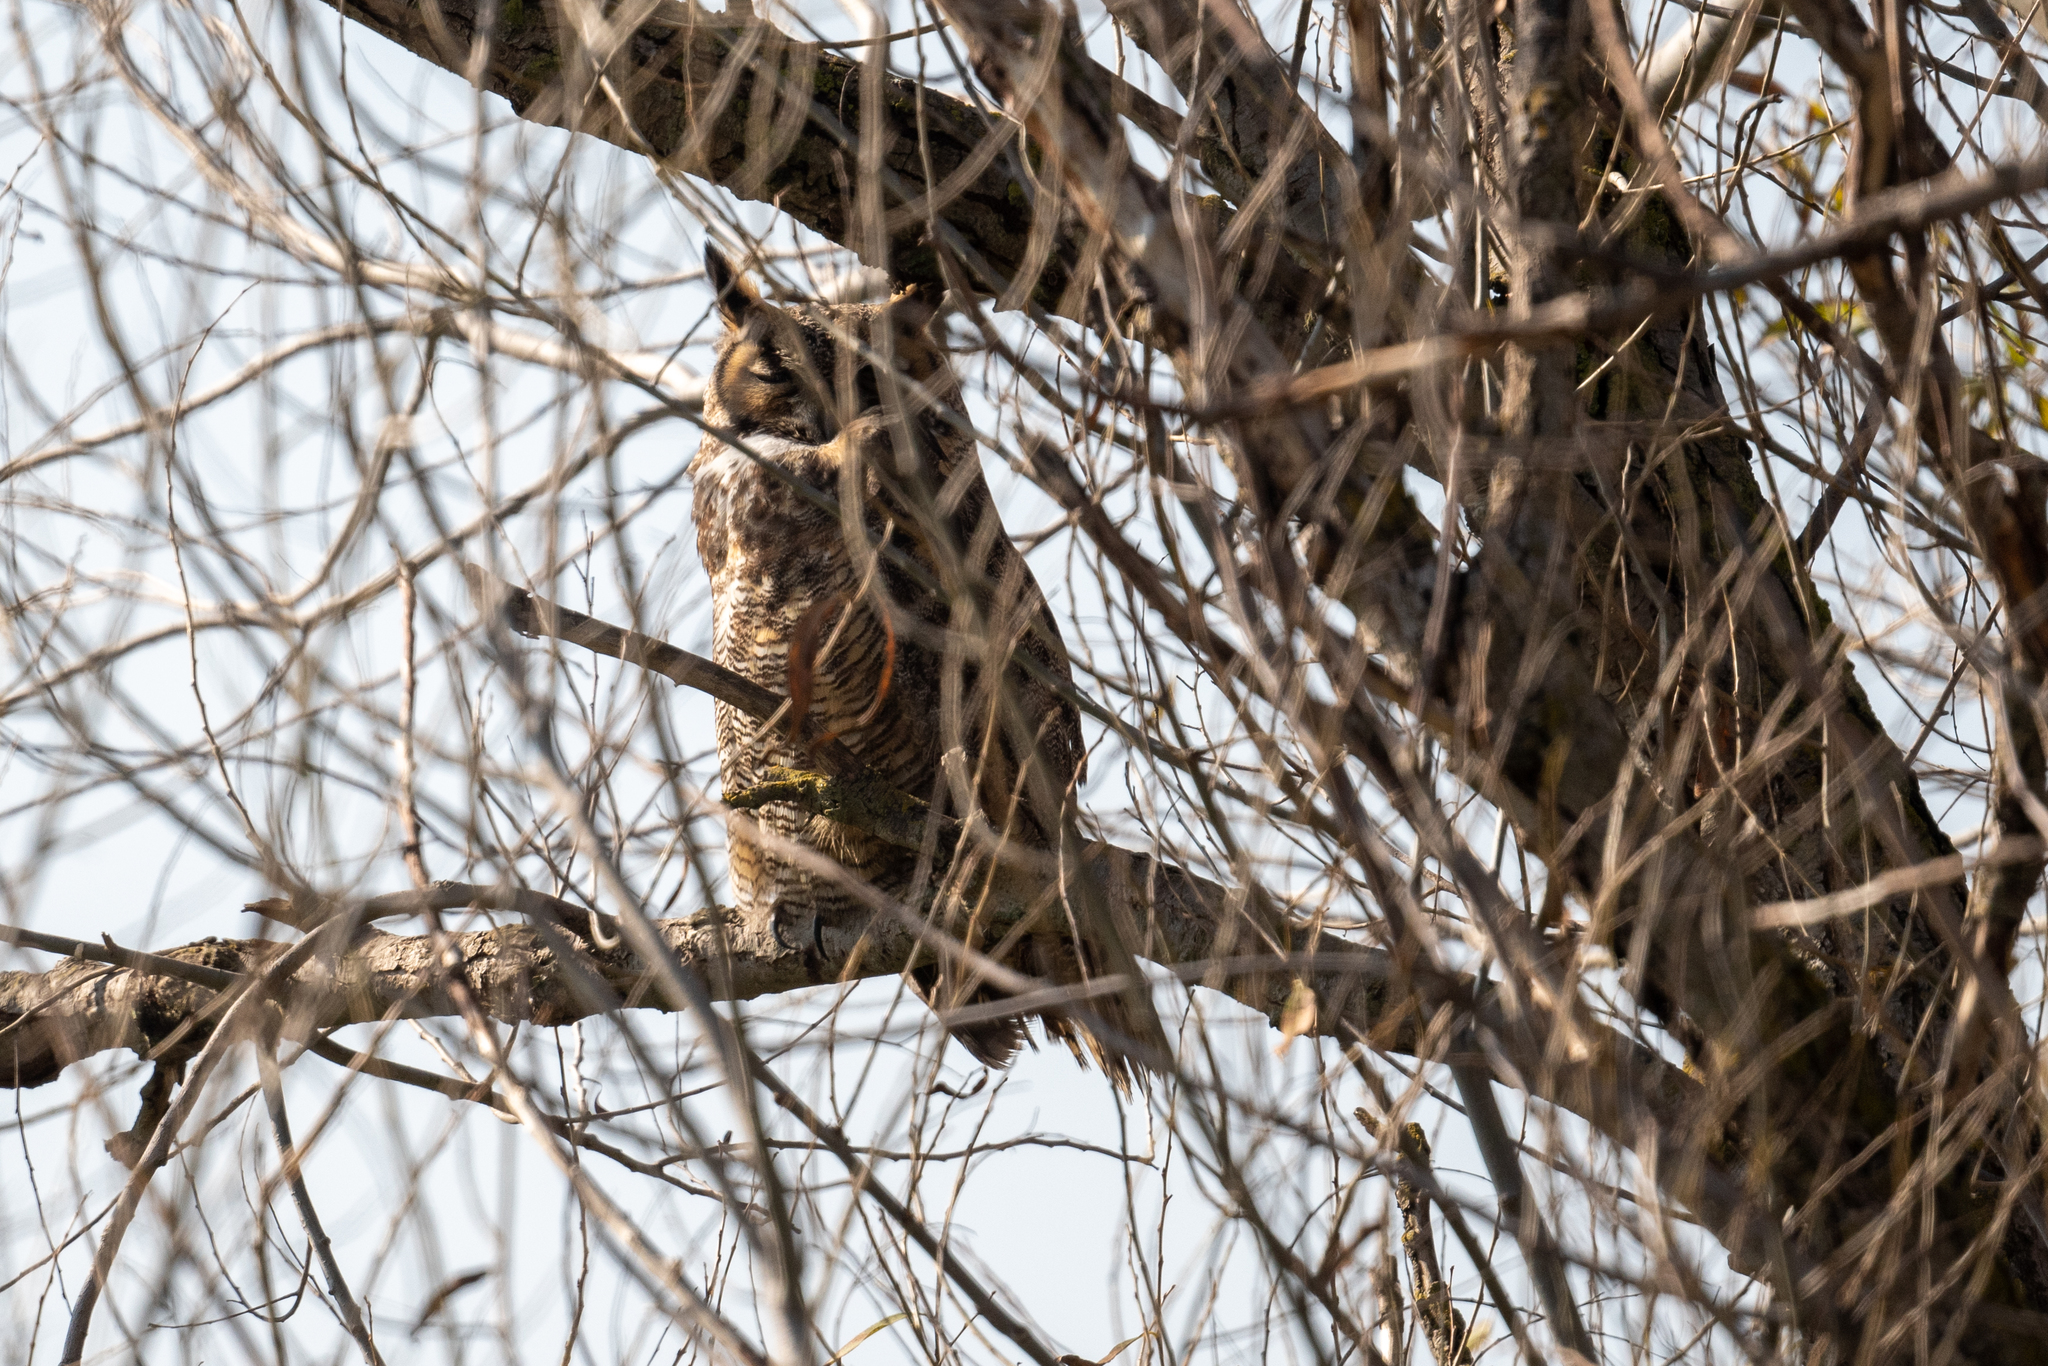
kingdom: Animalia
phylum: Chordata
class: Aves
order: Strigiformes
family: Strigidae
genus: Bubo
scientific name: Bubo virginianus
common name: Great horned owl
